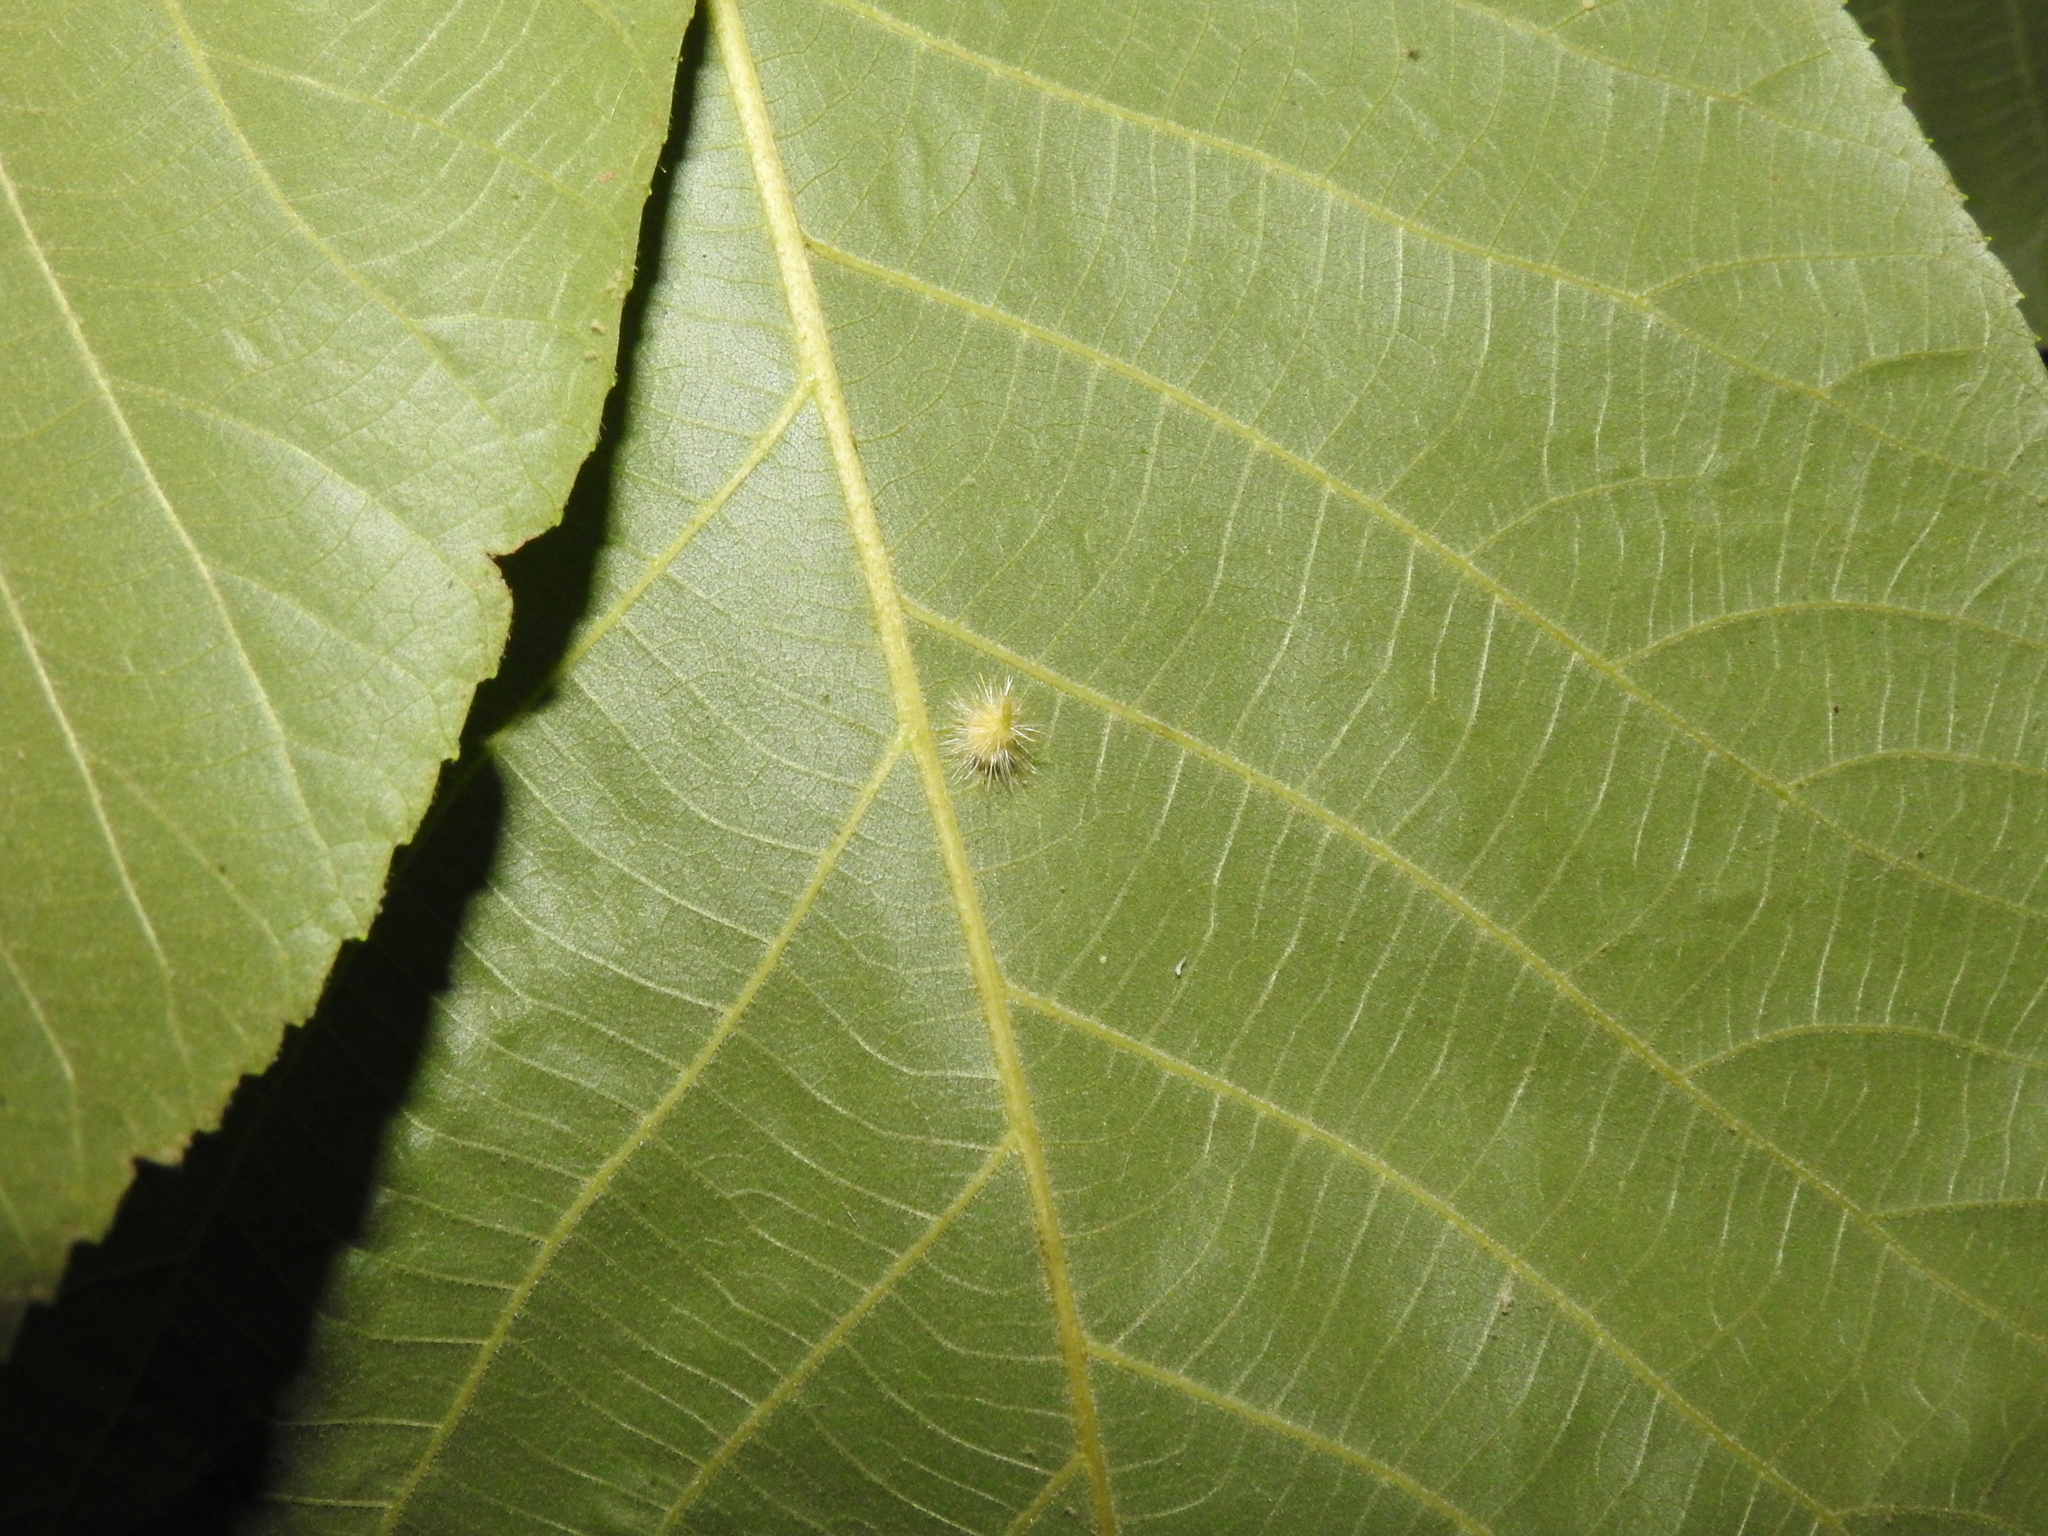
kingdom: Animalia
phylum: Arthropoda
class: Insecta
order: Diptera
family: Cecidomyiidae
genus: Caryomyia
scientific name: Caryomyia echinata
